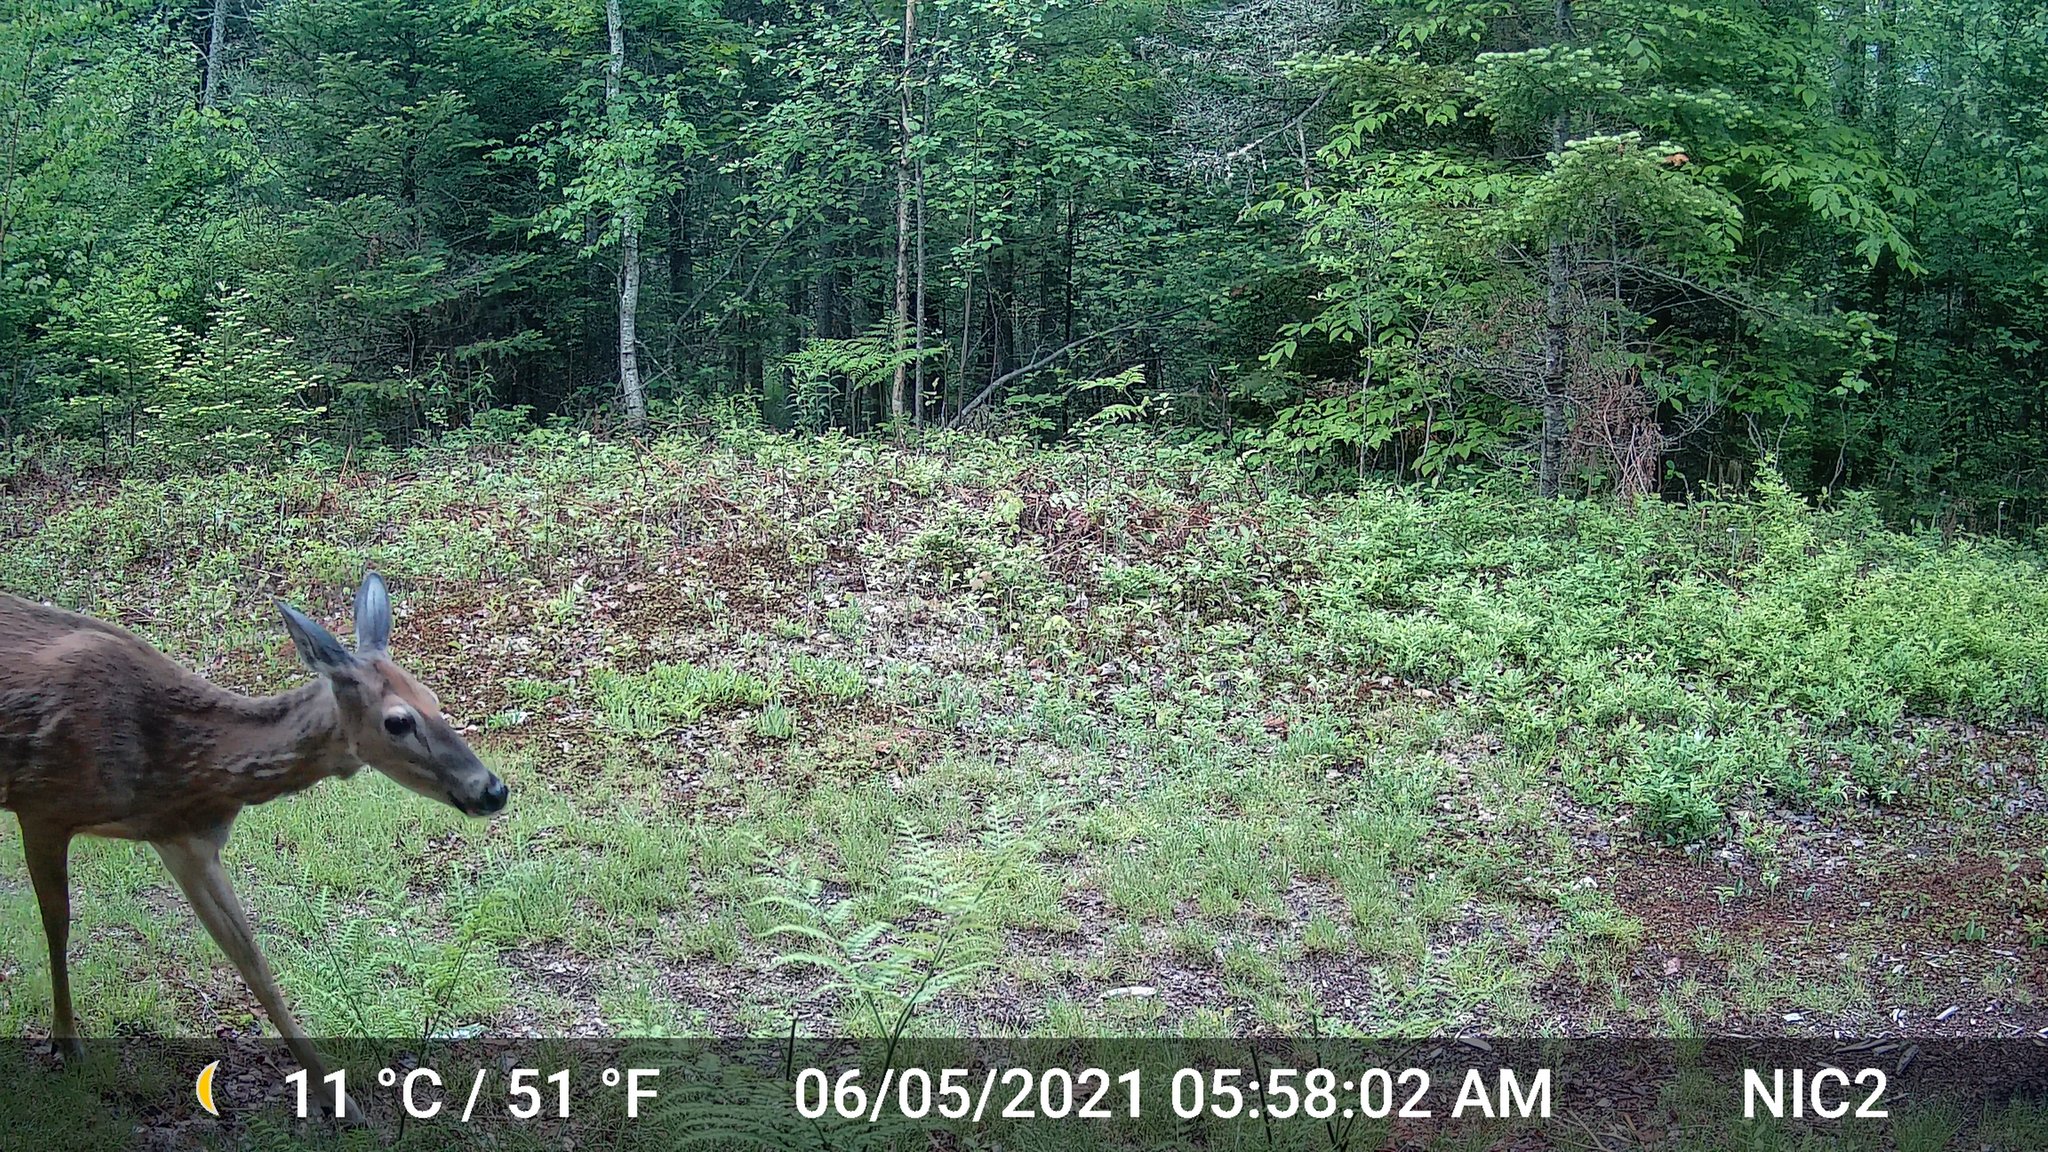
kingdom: Animalia
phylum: Chordata
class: Mammalia
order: Artiodactyla
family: Cervidae
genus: Odocoileus
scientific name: Odocoileus virginianus
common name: White-tailed deer
